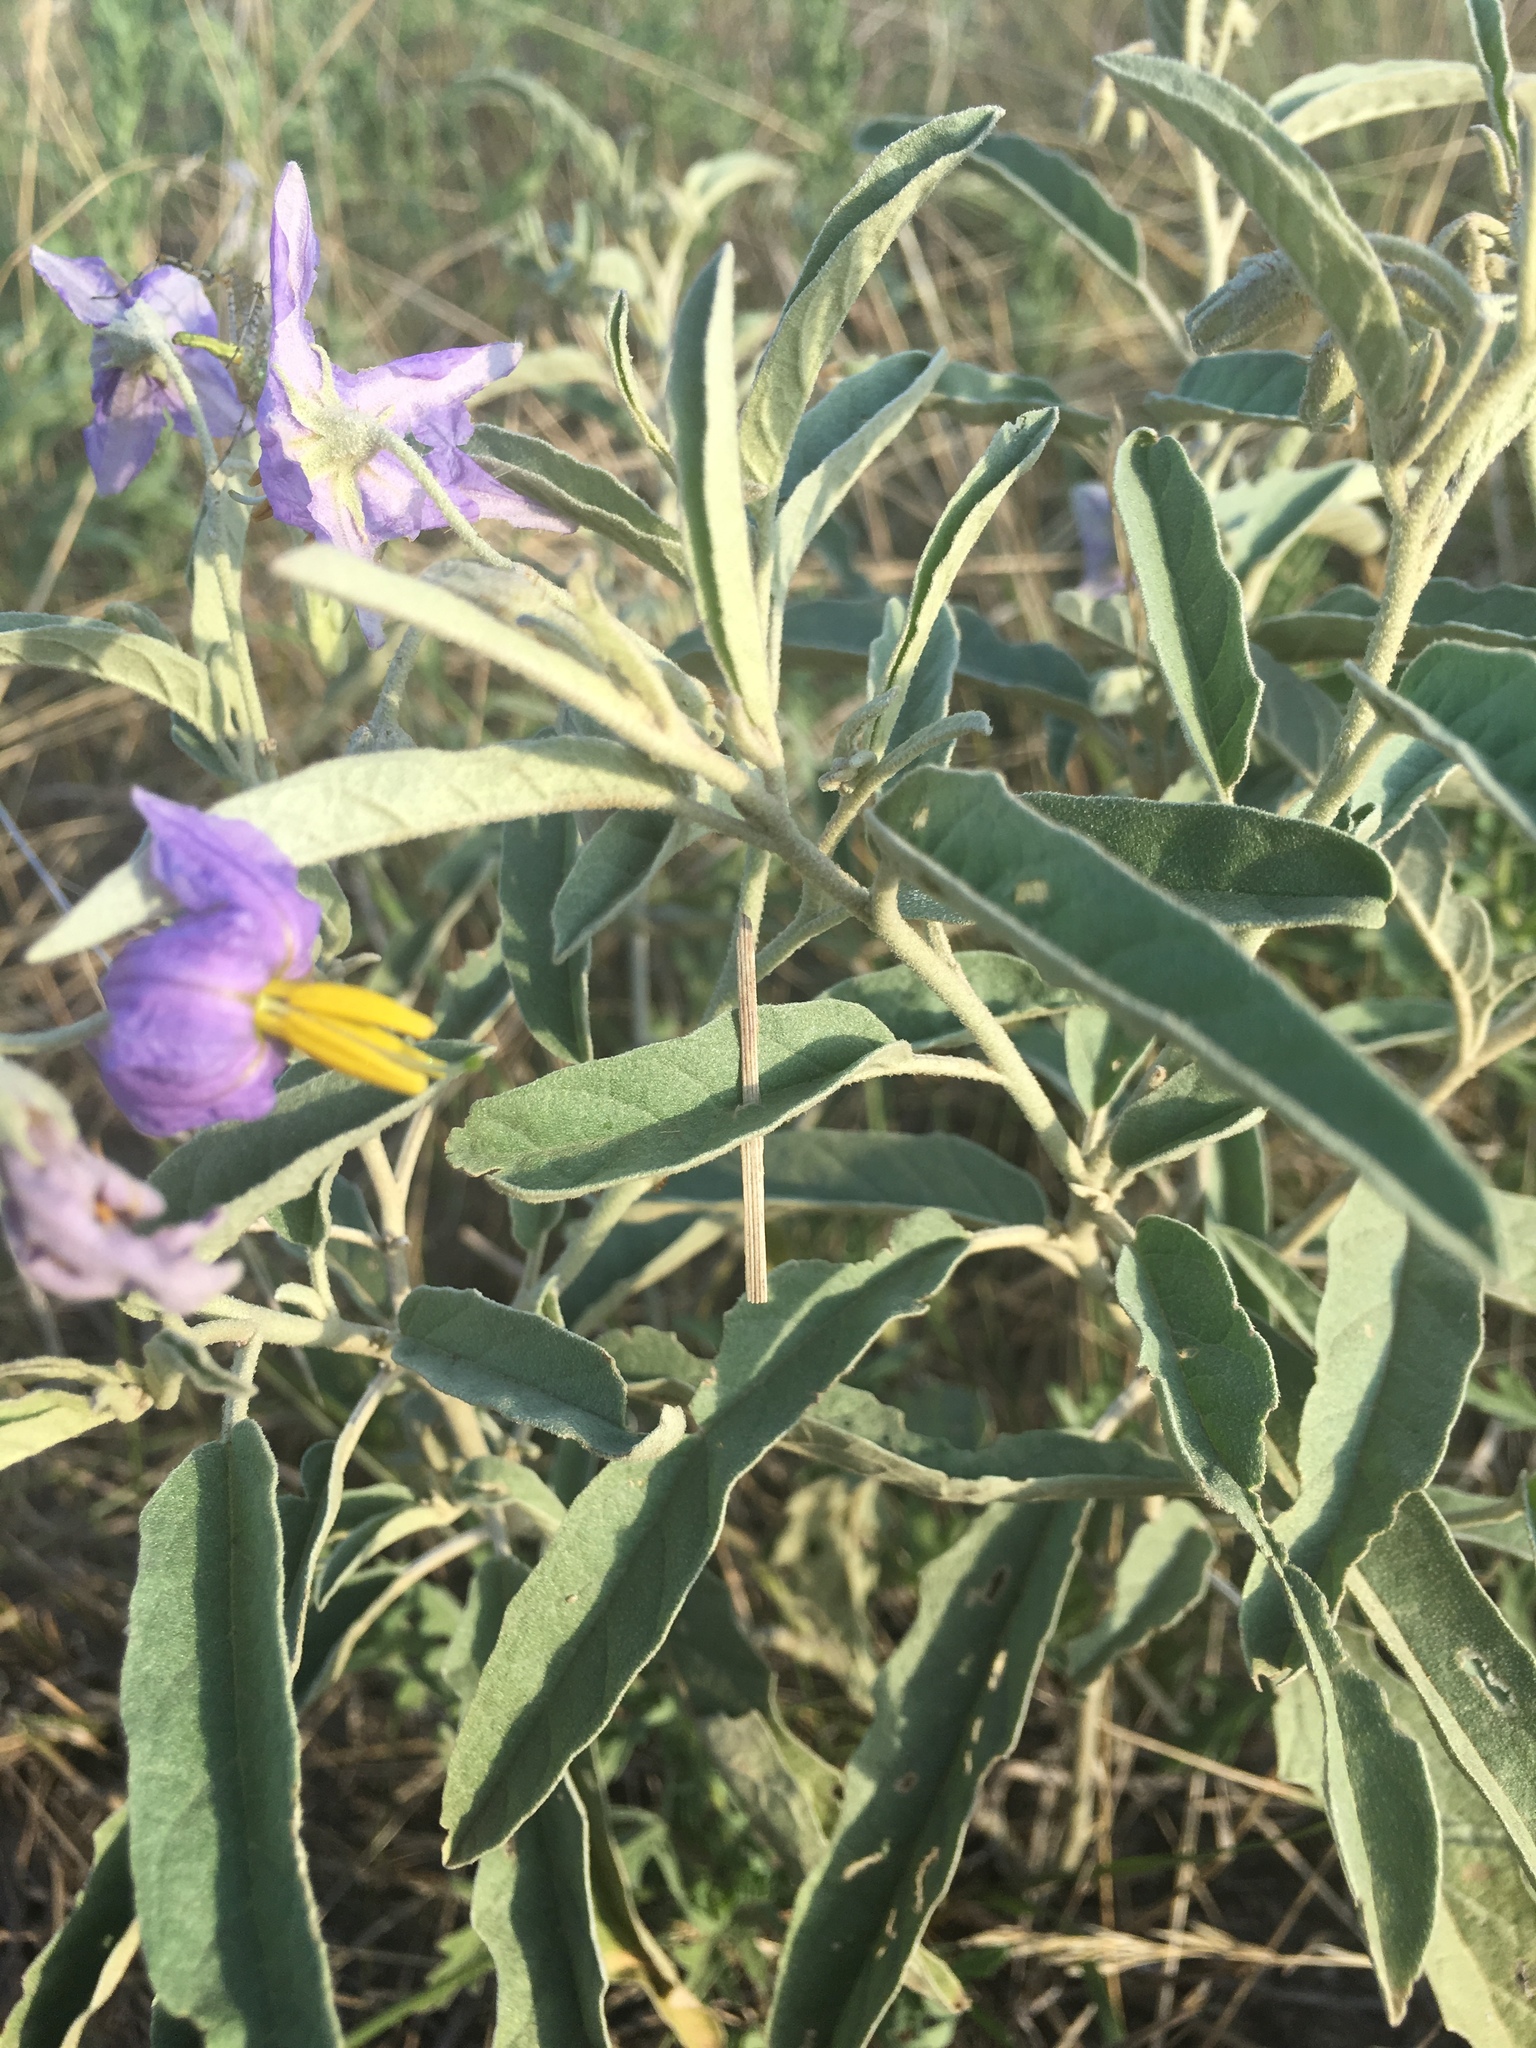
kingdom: Plantae
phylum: Tracheophyta
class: Magnoliopsida
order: Solanales
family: Solanaceae
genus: Solanum
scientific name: Solanum elaeagnifolium
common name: Silverleaf nightshade
